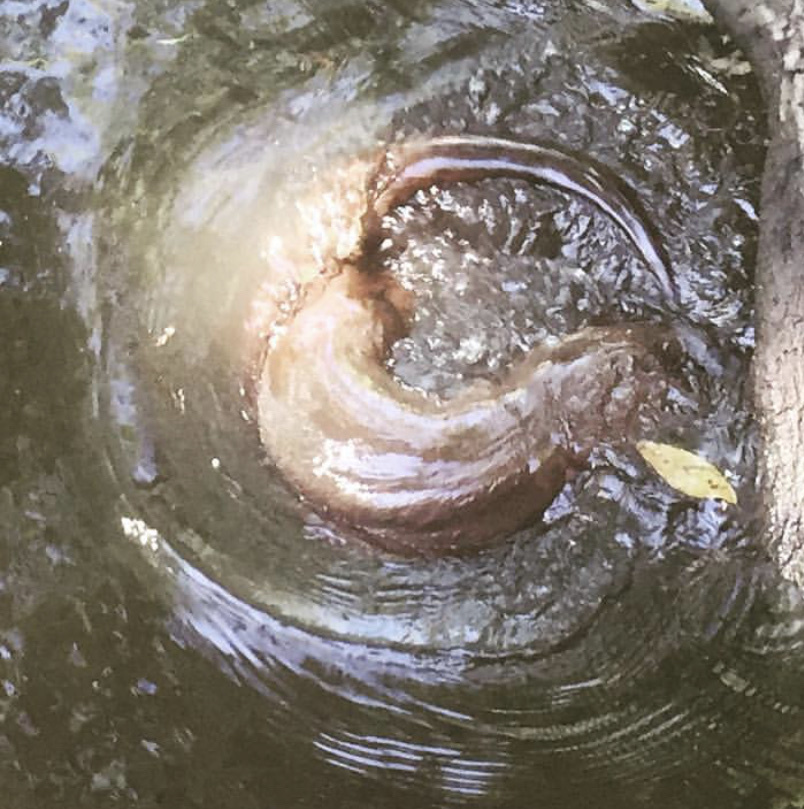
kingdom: Animalia
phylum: Chordata
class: Mammalia
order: Carnivora
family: Mustelidae
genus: Lontra
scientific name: Lontra canadensis
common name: North american river otter
